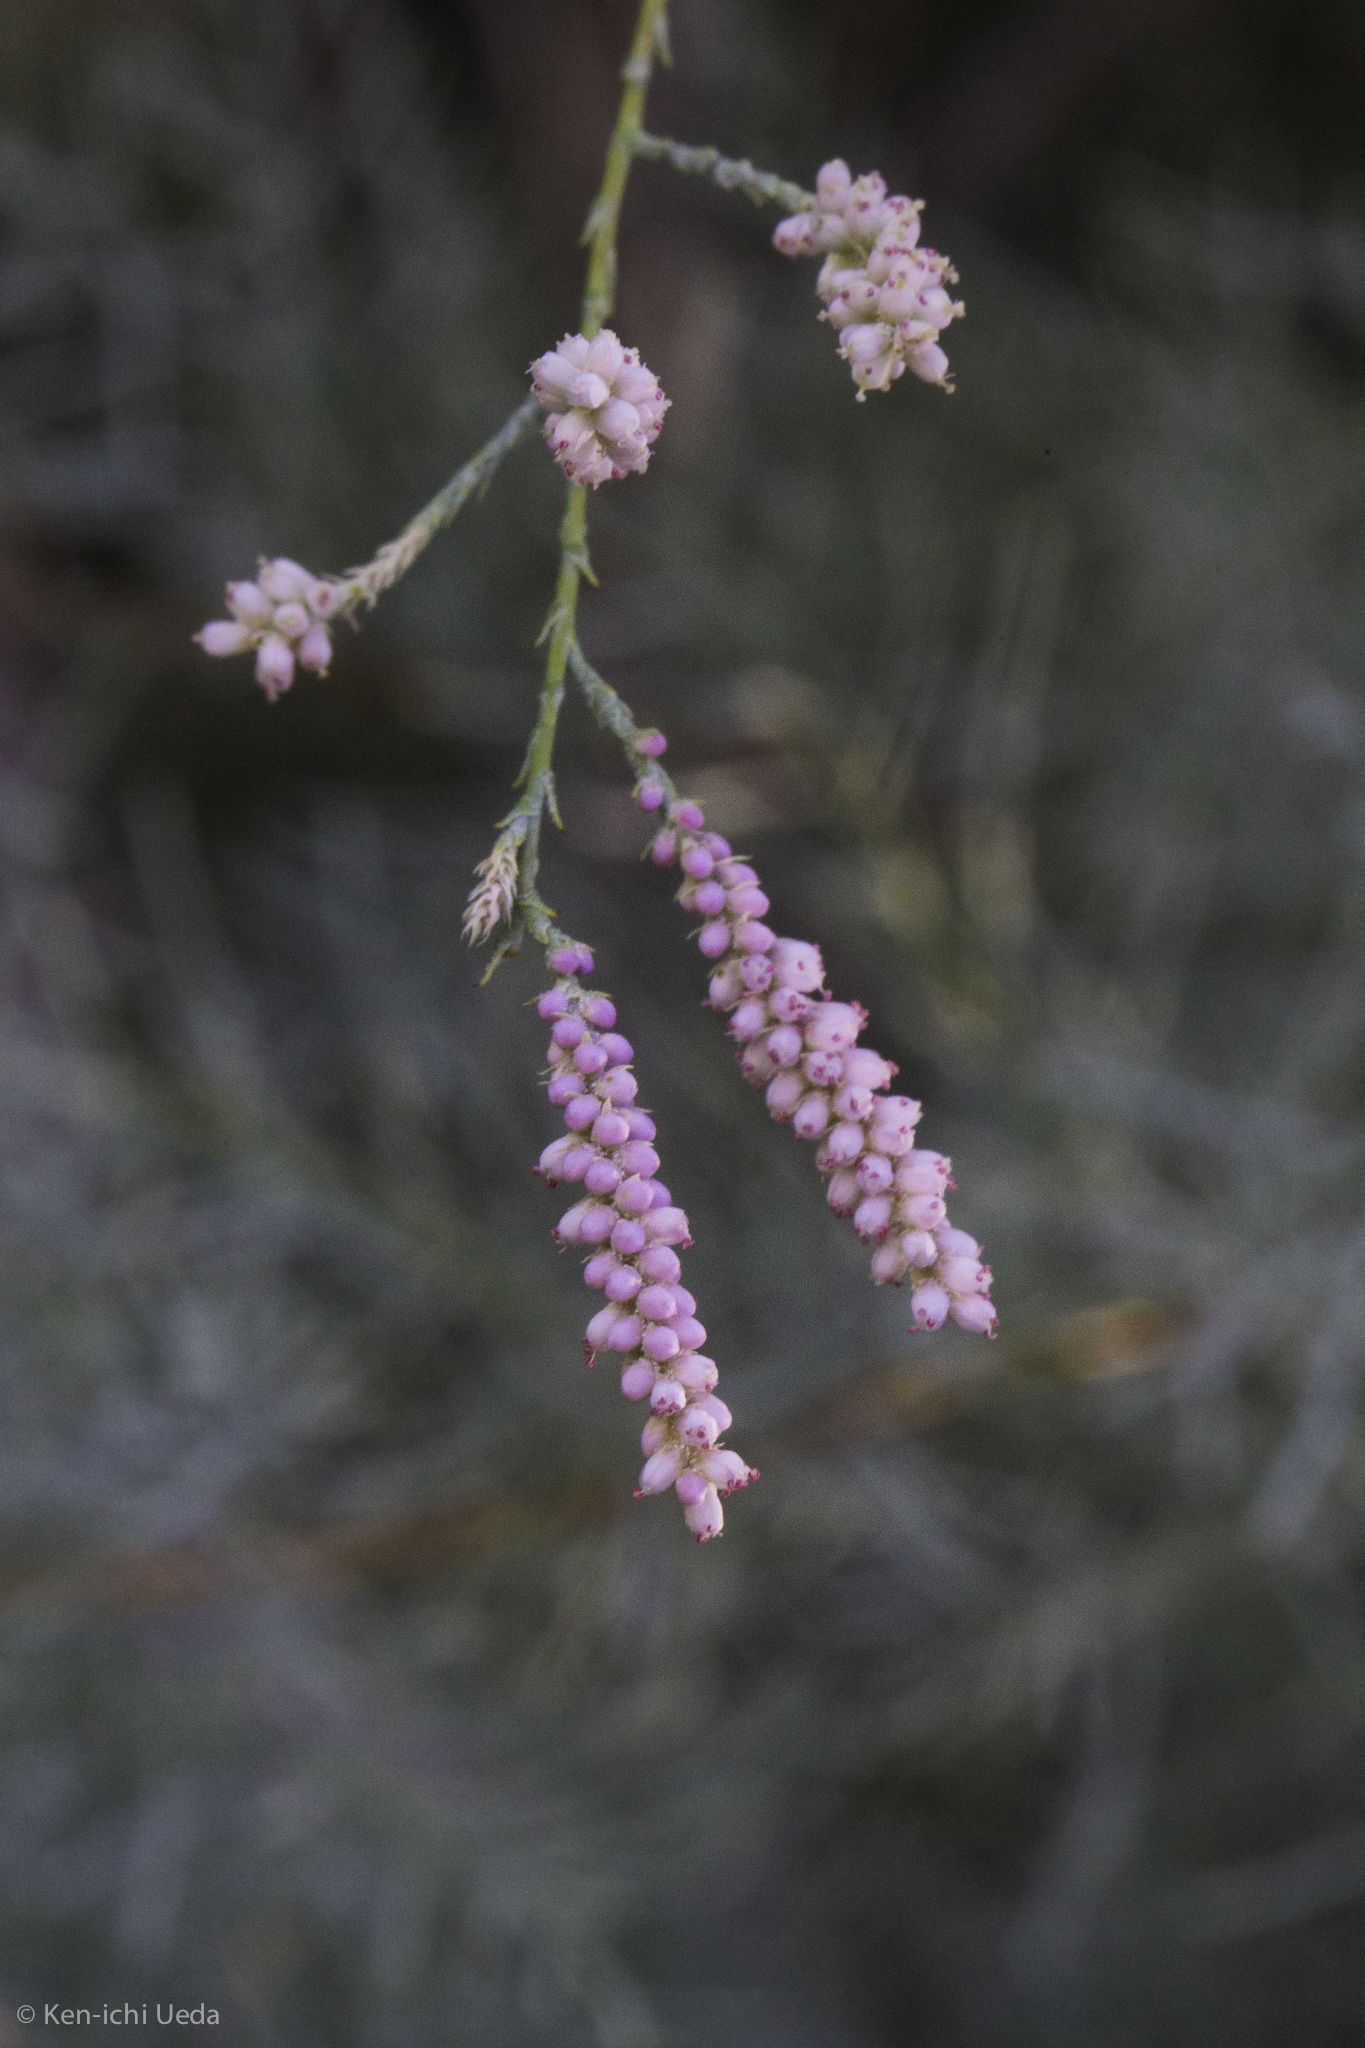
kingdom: Plantae
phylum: Tracheophyta
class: Magnoliopsida
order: Caryophyllales
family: Tamaricaceae
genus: Tamarix
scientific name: Tamarix
